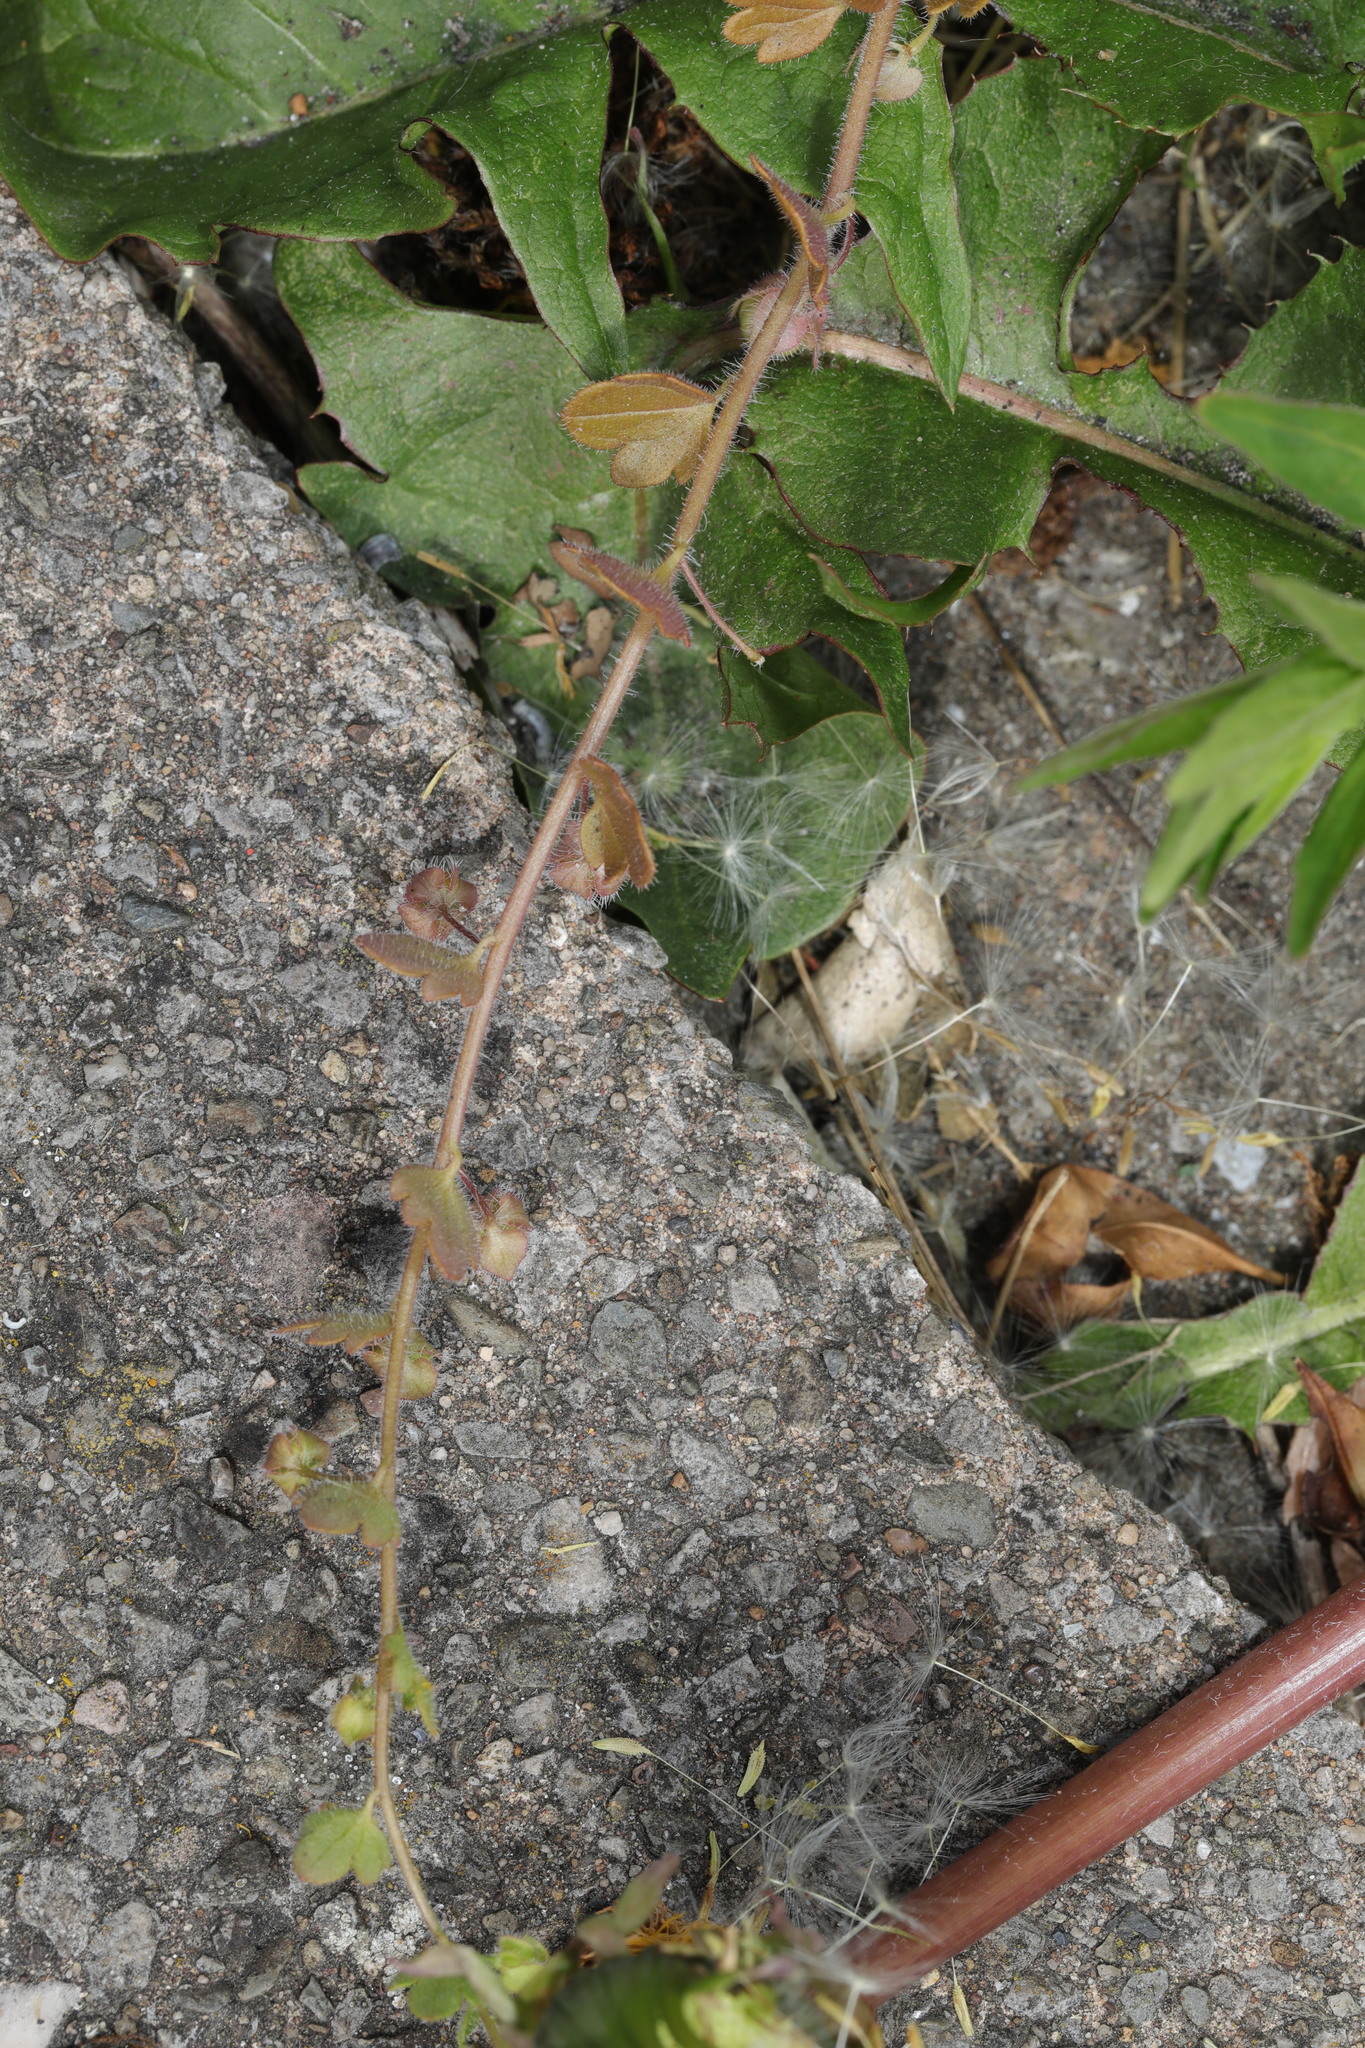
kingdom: Plantae
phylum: Tracheophyta
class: Magnoliopsida
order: Lamiales
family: Plantaginaceae
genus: Veronica
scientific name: Veronica hederifolia
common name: Ivy-leaved speedwell
